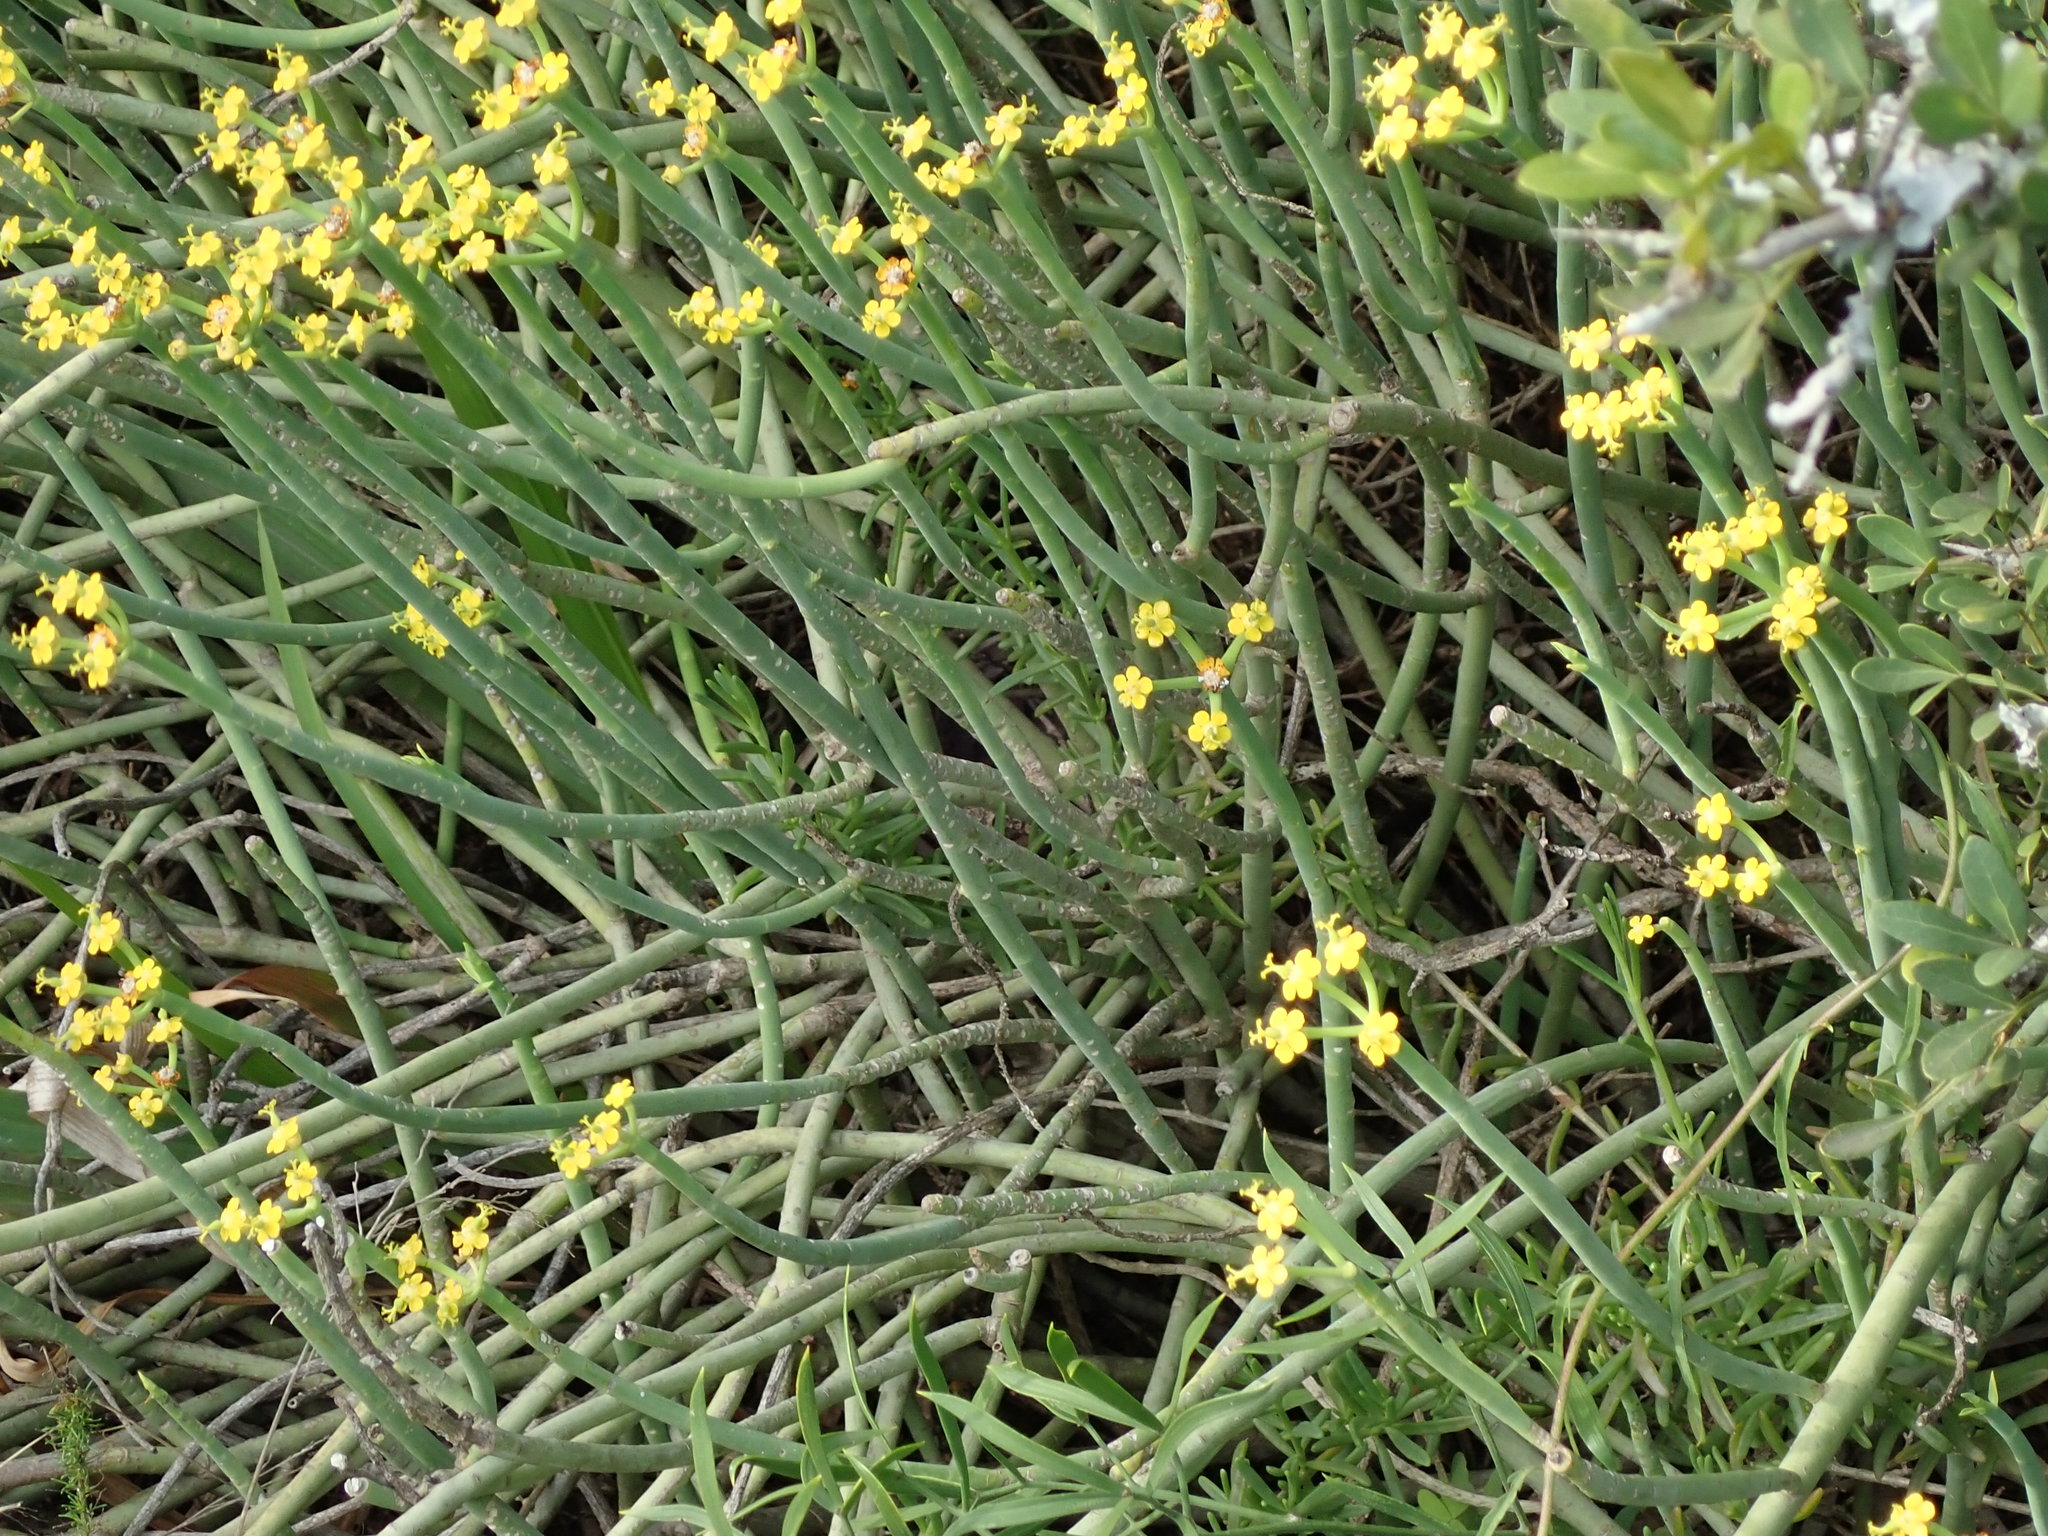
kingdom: Plantae
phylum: Tracheophyta
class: Magnoliopsida
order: Malpighiales
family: Euphorbiaceae
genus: Euphorbia
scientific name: Euphorbia mauritanica
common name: Jackal's-food
